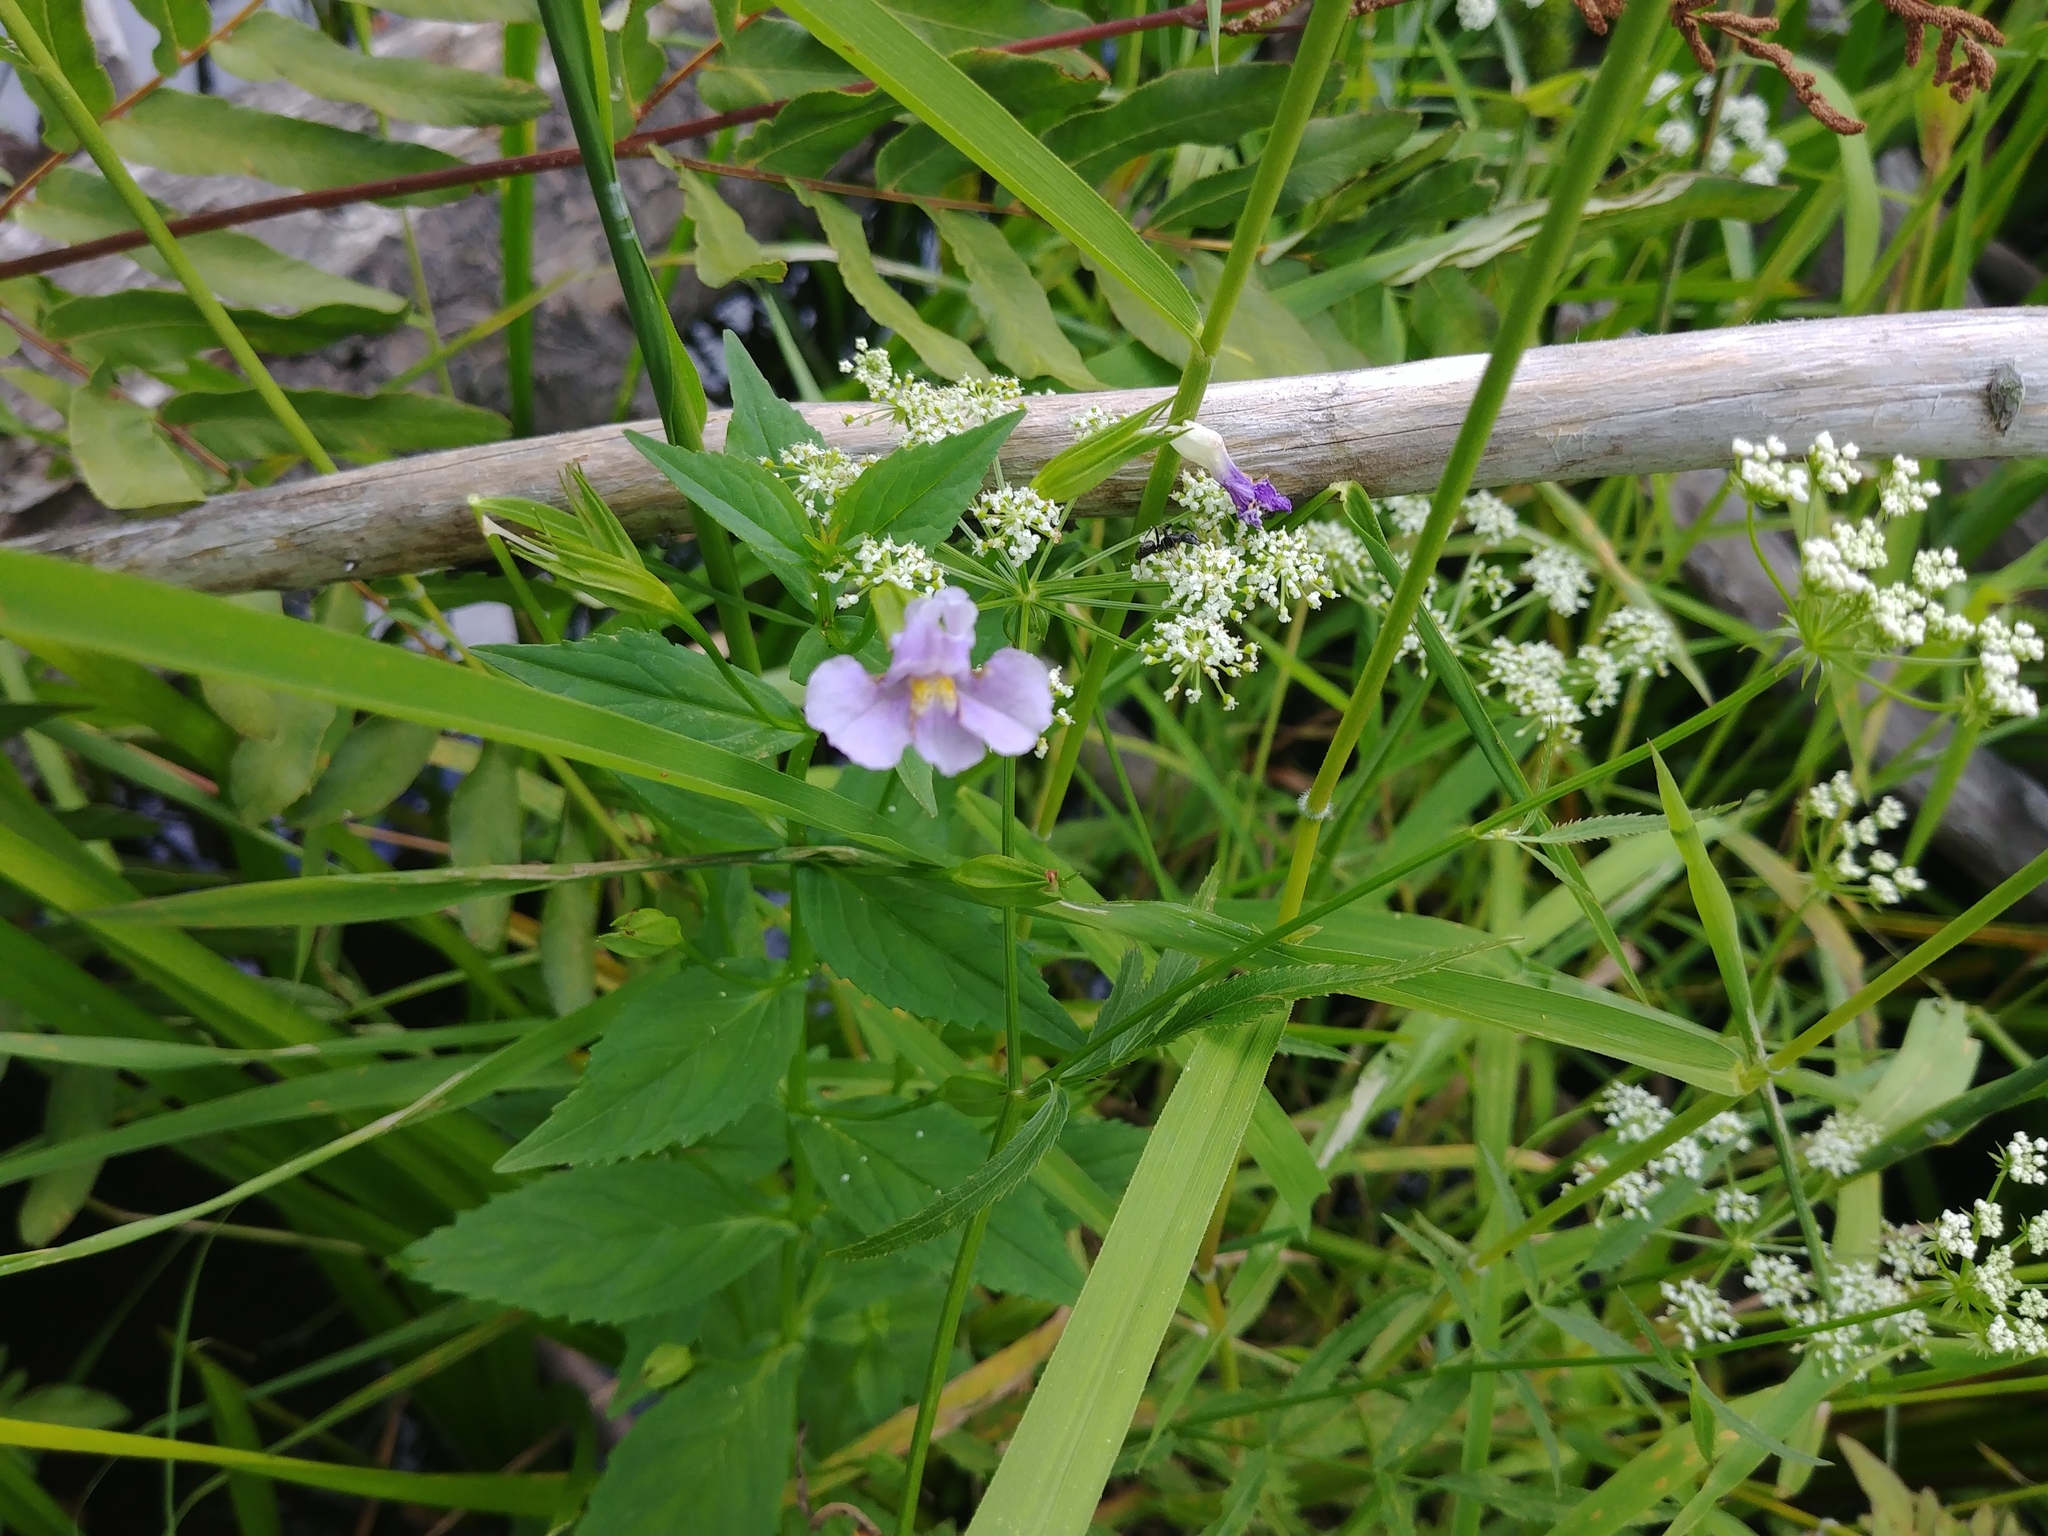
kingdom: Plantae
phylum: Tracheophyta
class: Magnoliopsida
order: Lamiales
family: Phrymaceae
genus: Mimulus
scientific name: Mimulus ringens
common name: Allegheny monkeyflower
